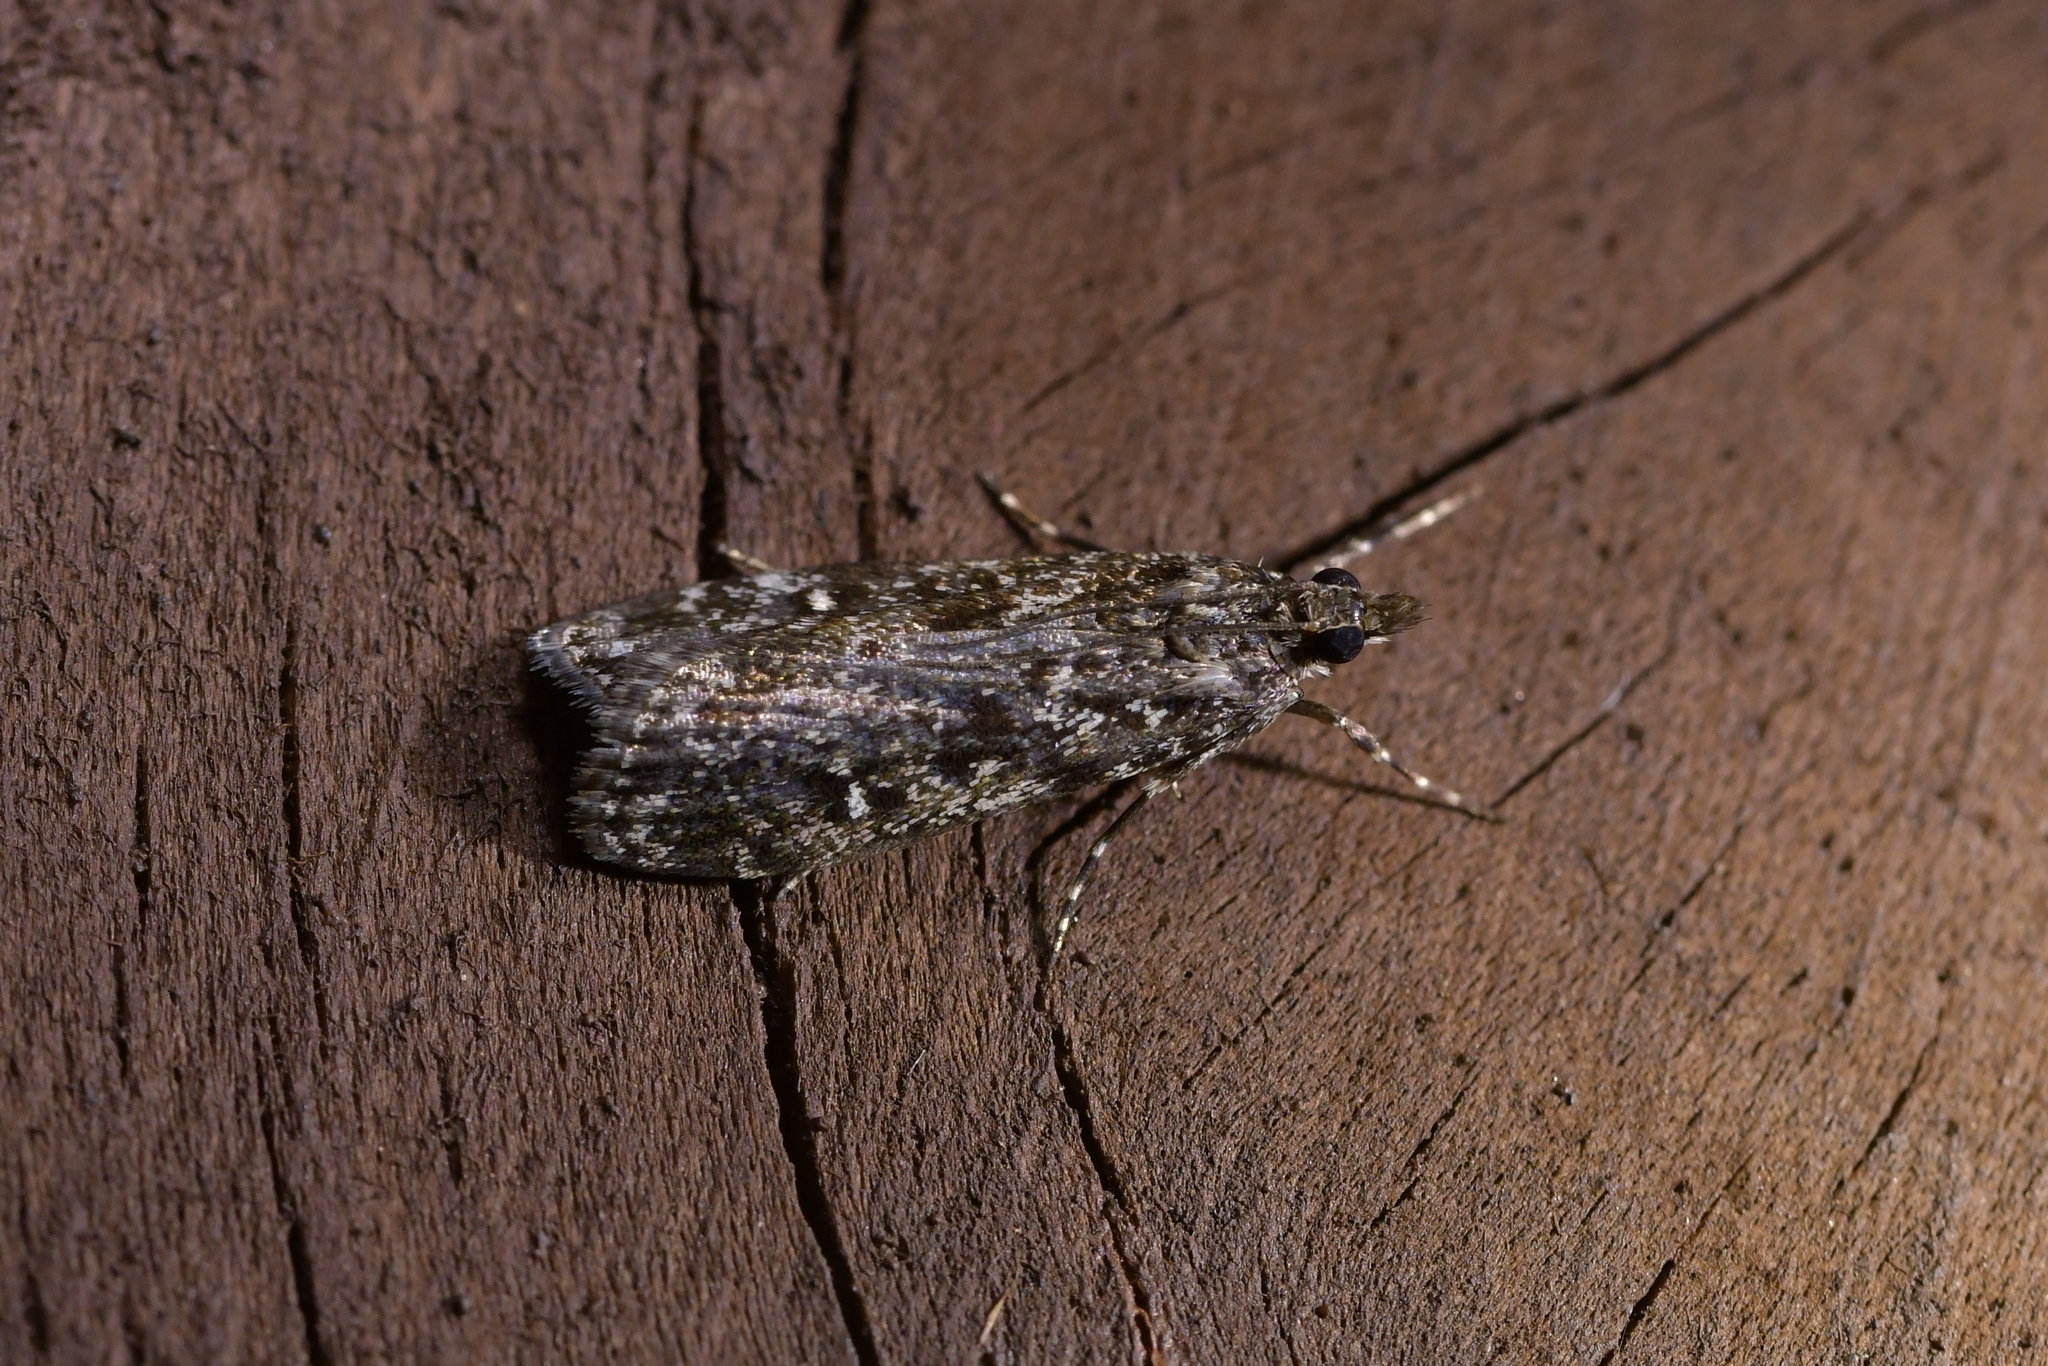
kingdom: Animalia
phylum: Arthropoda
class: Insecta
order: Lepidoptera
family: Crambidae
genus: Eudonia
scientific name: Eudonia philerga
